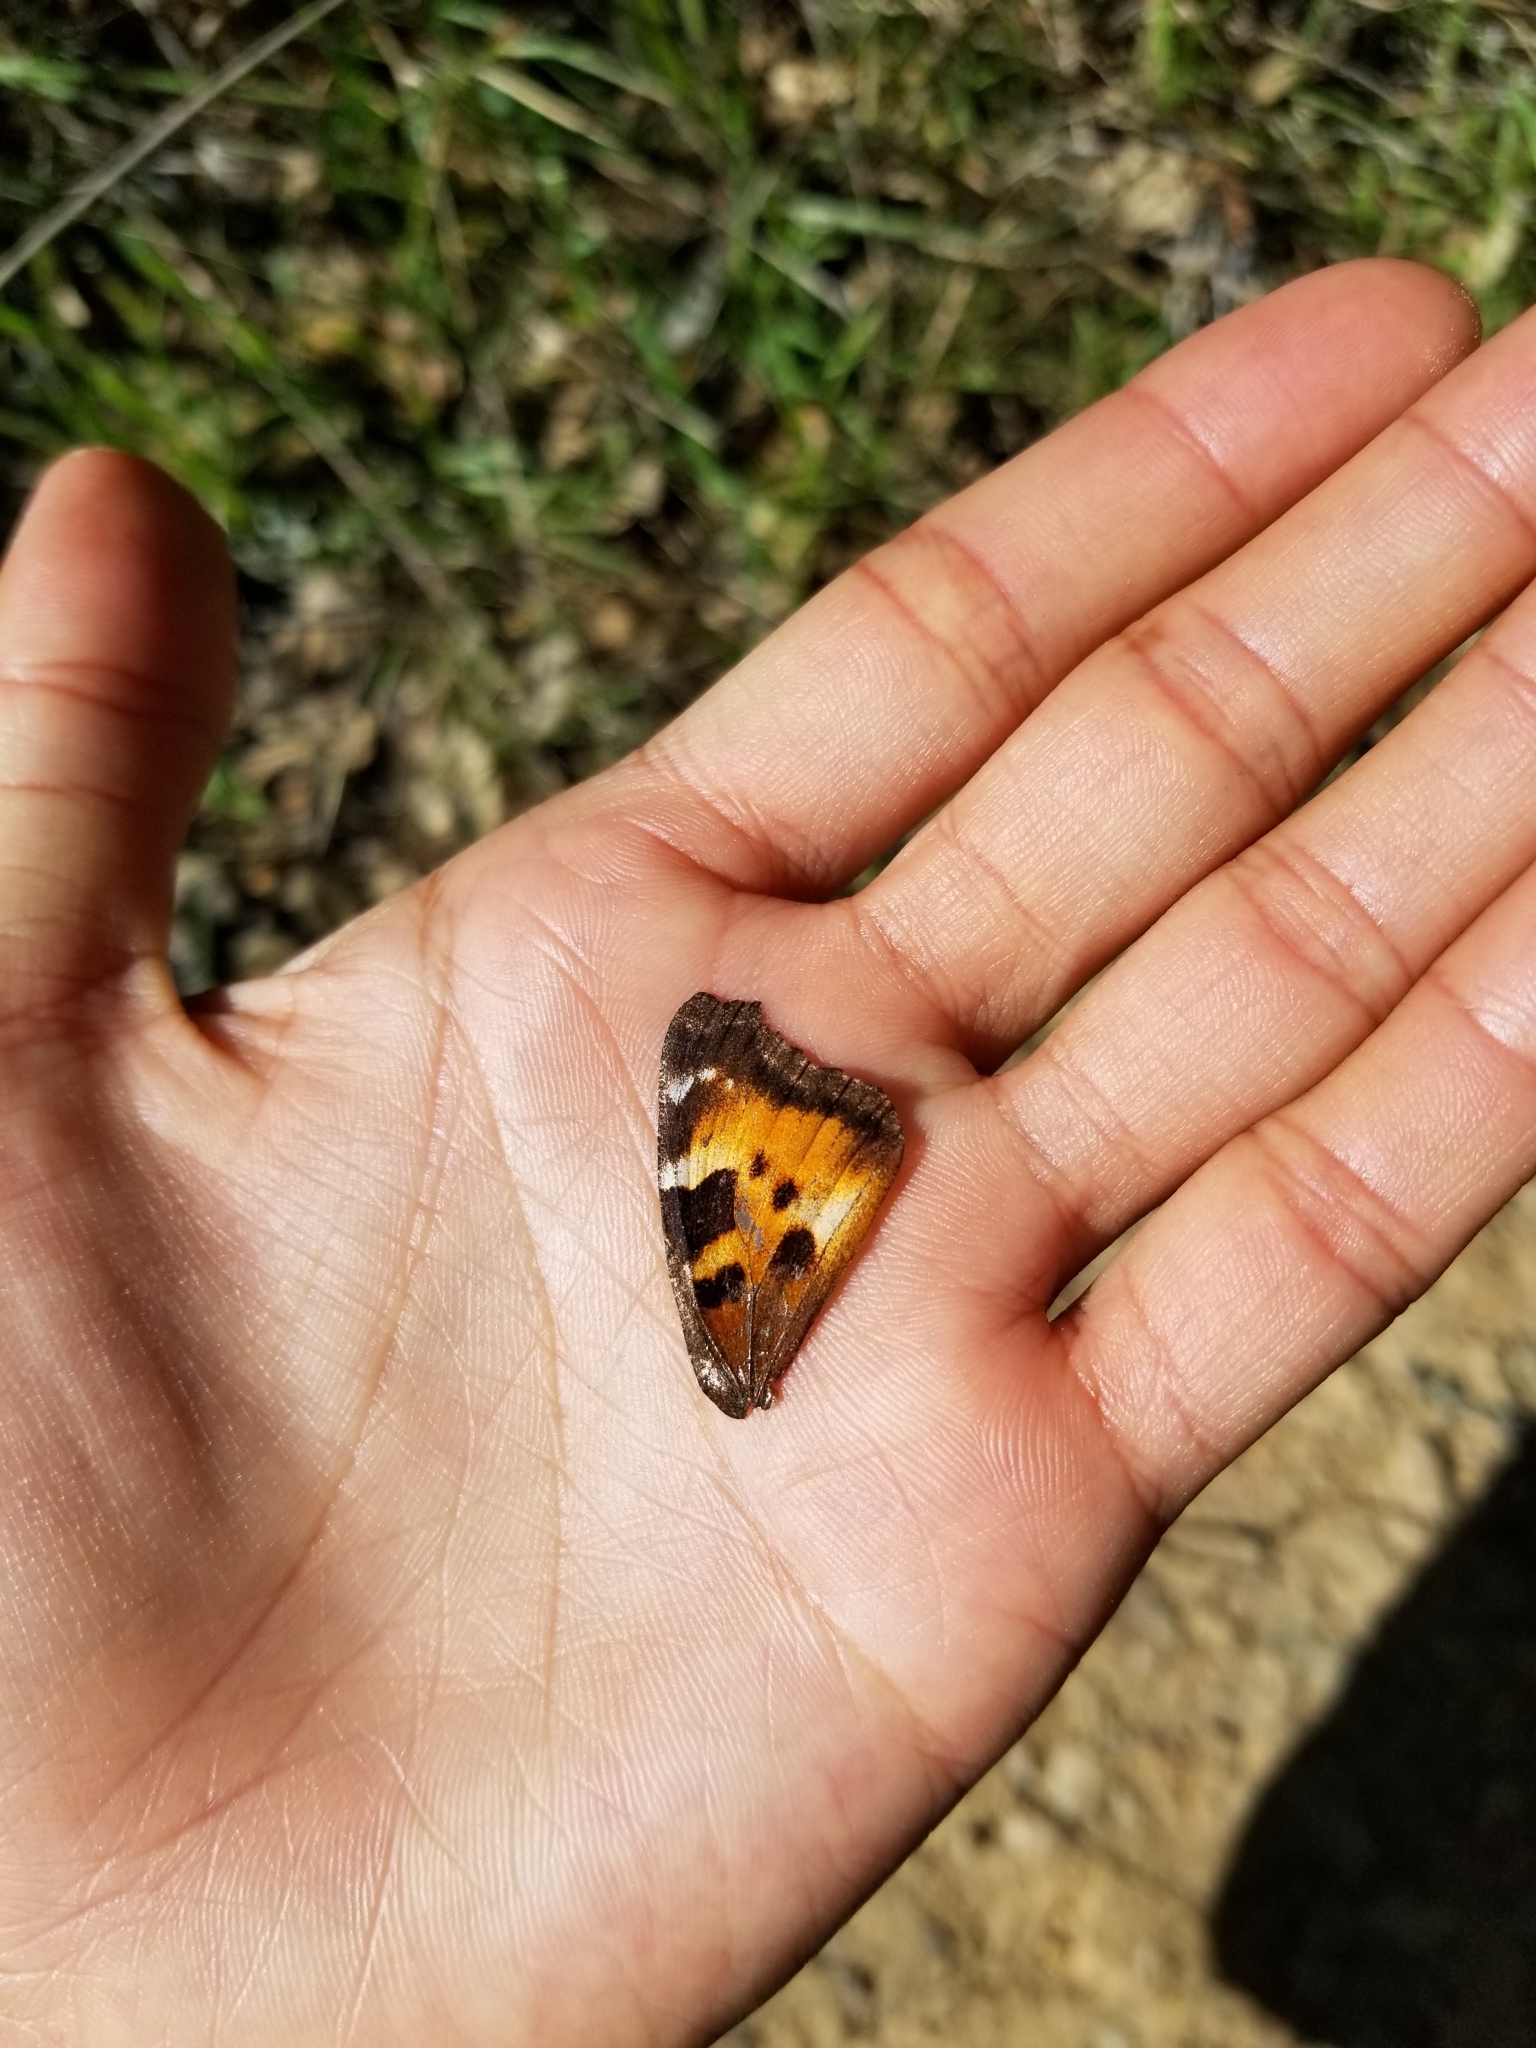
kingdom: Animalia
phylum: Arthropoda
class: Insecta
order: Lepidoptera
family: Nymphalidae
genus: Nymphalis
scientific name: Nymphalis californica
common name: California tortoiseshell
